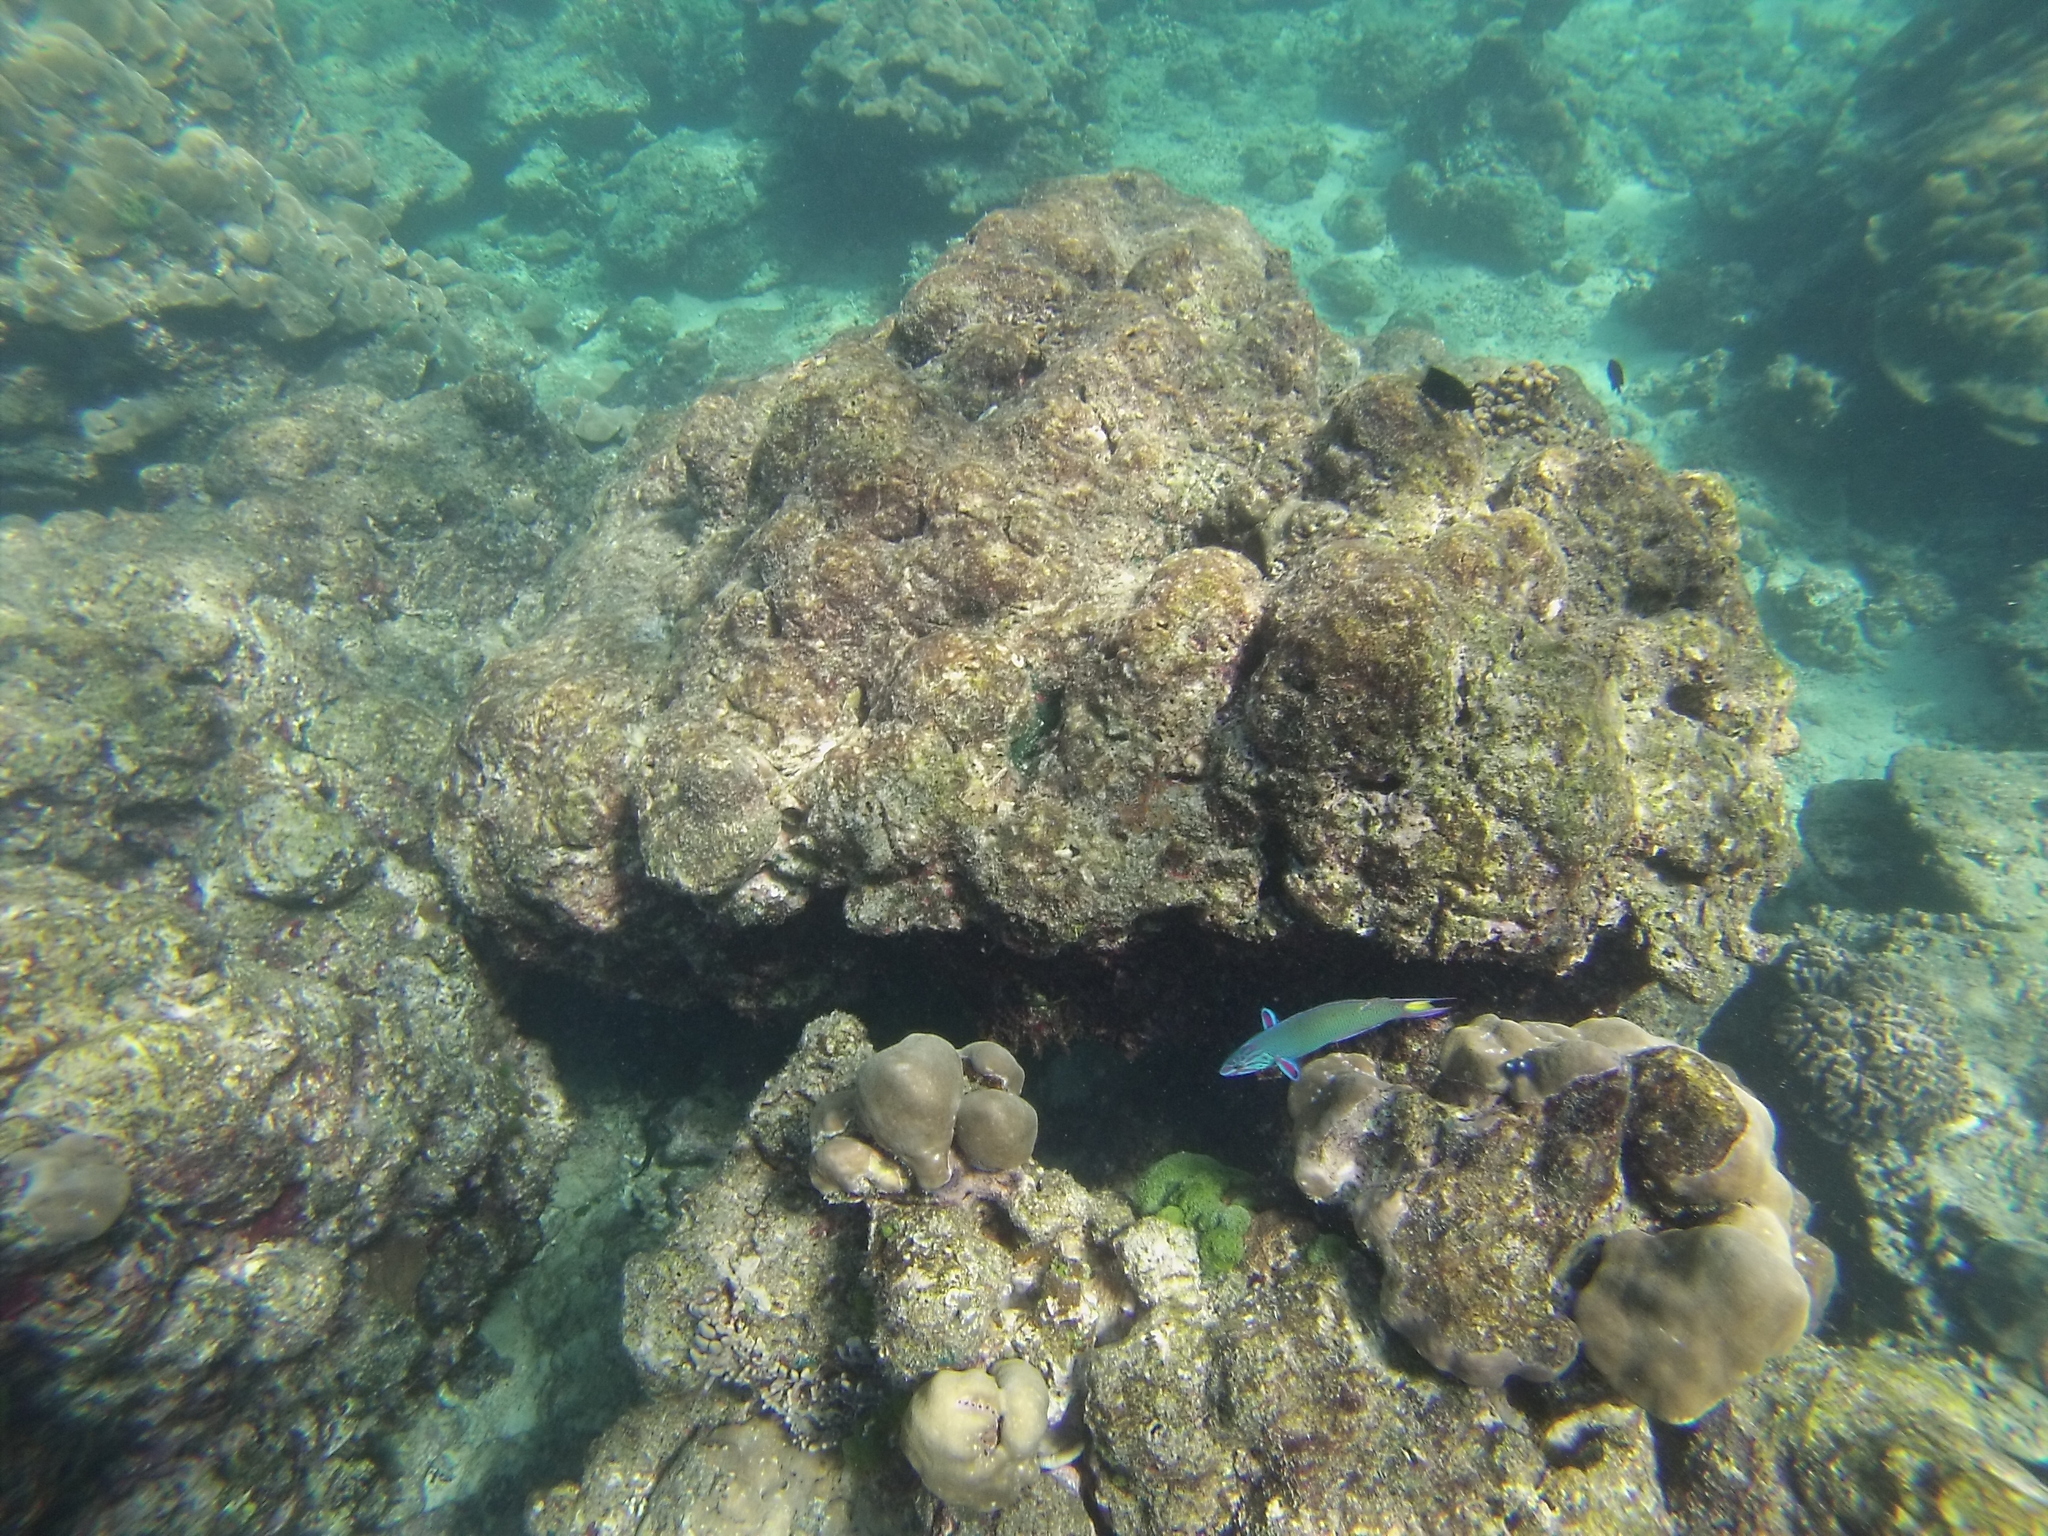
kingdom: Animalia
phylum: Chordata
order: Perciformes
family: Labridae
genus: Thalassoma
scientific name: Thalassoma lunare
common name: Blue wrasse
